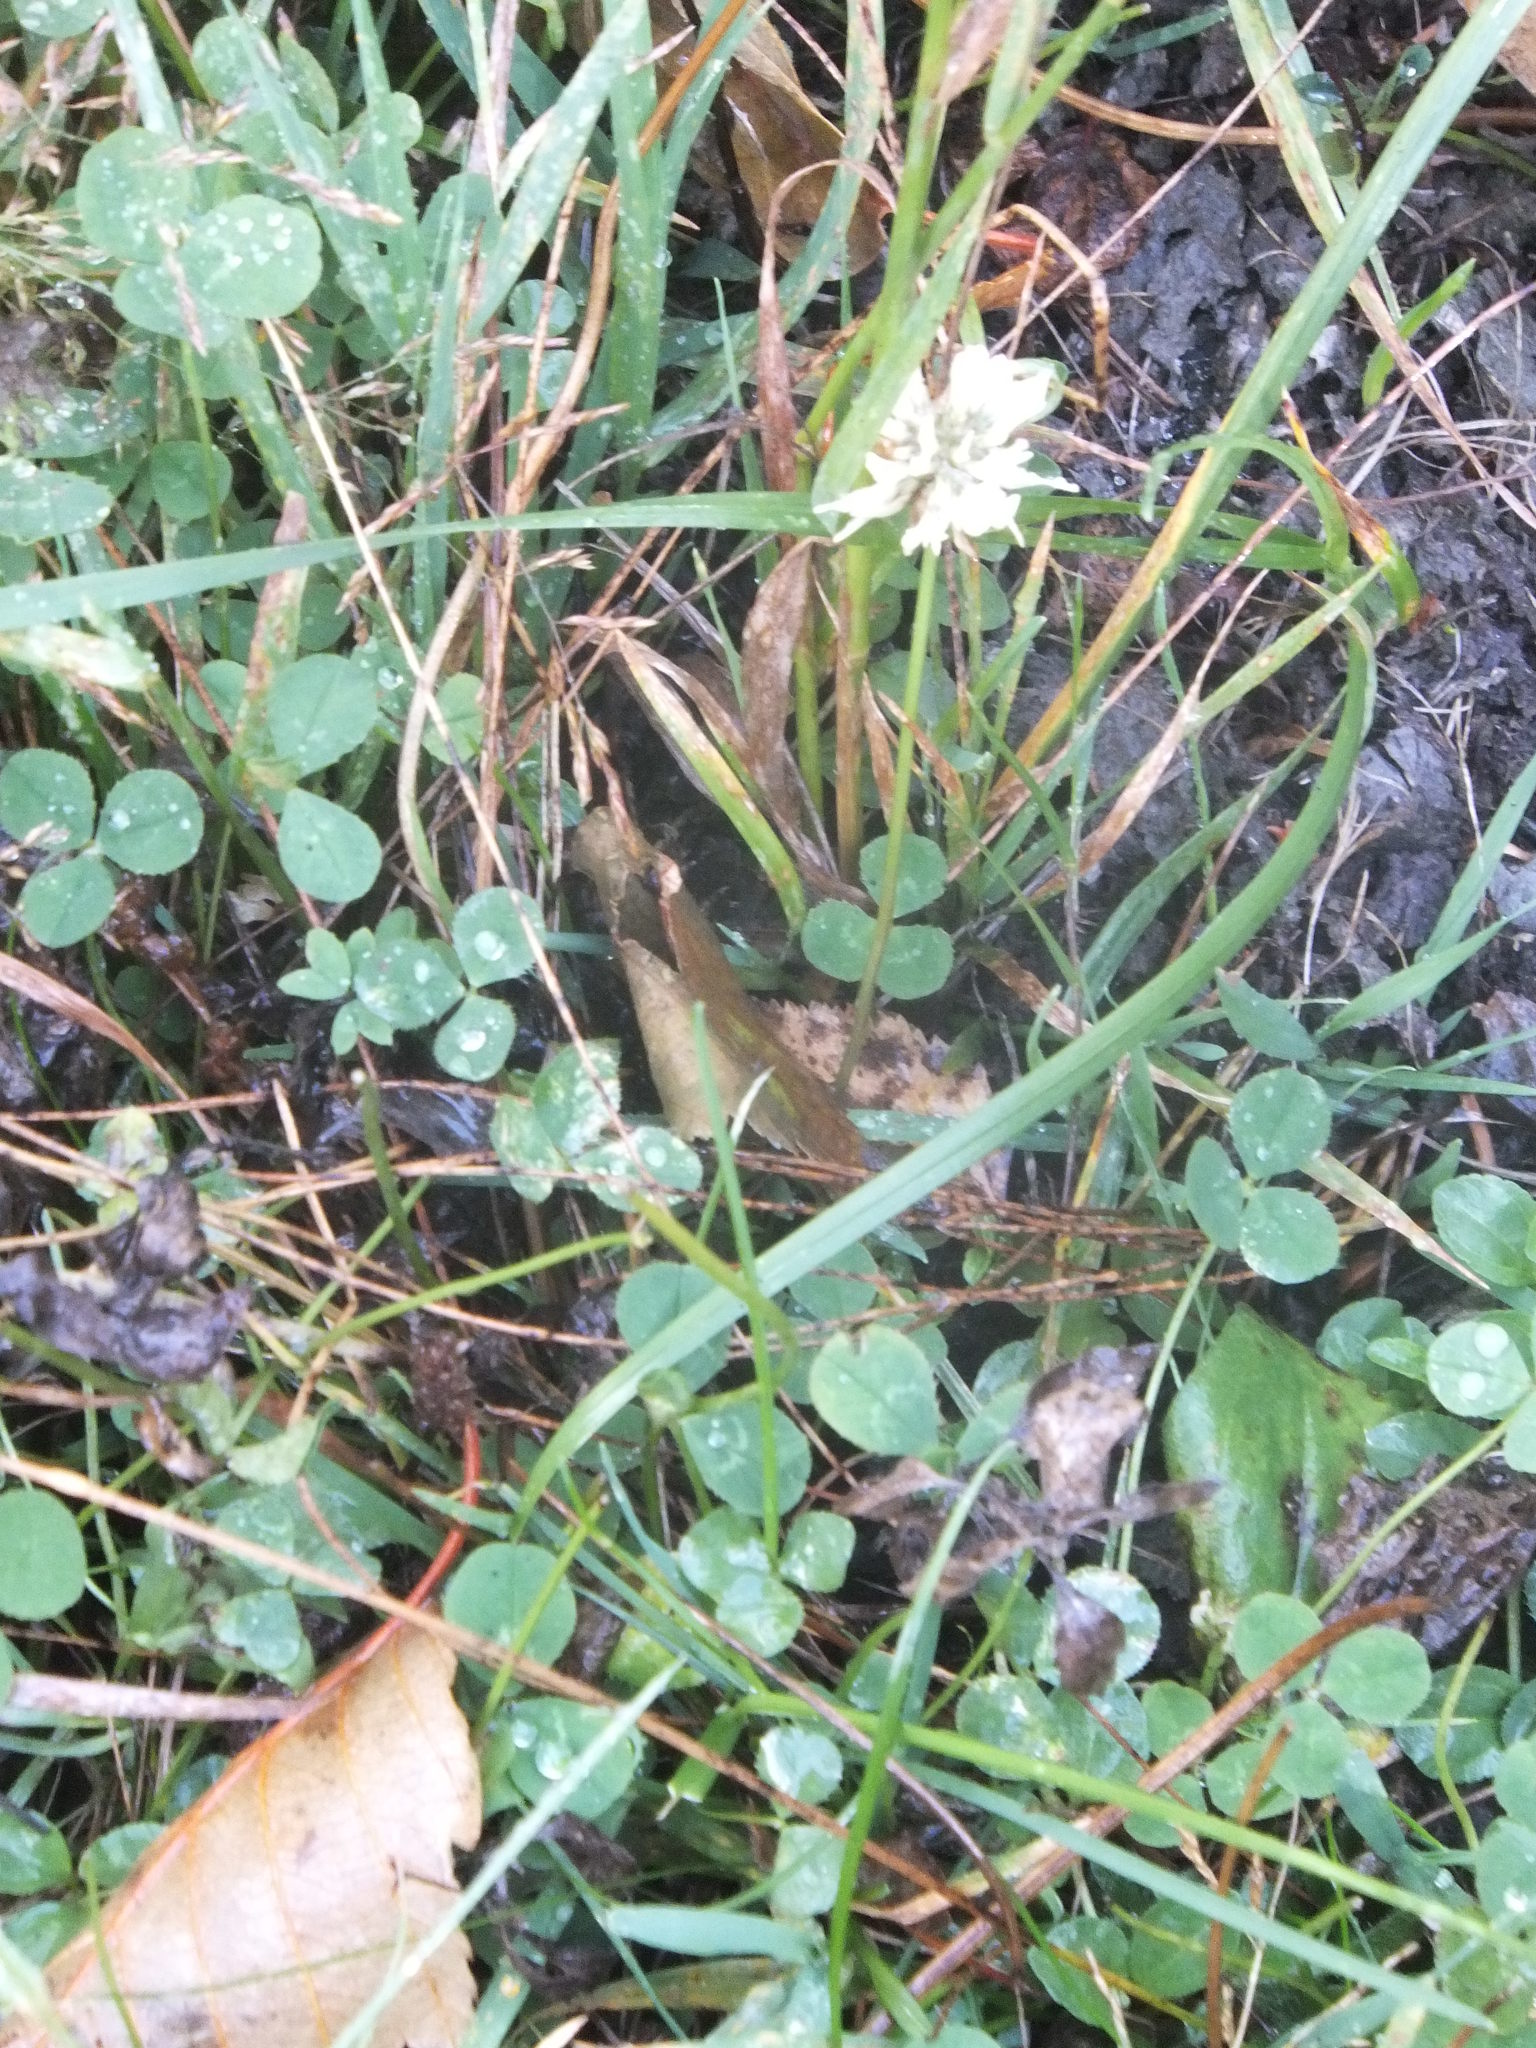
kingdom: Plantae
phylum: Tracheophyta
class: Magnoliopsida
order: Fabales
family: Fabaceae
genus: Trifolium
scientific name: Trifolium repens
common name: White clover
